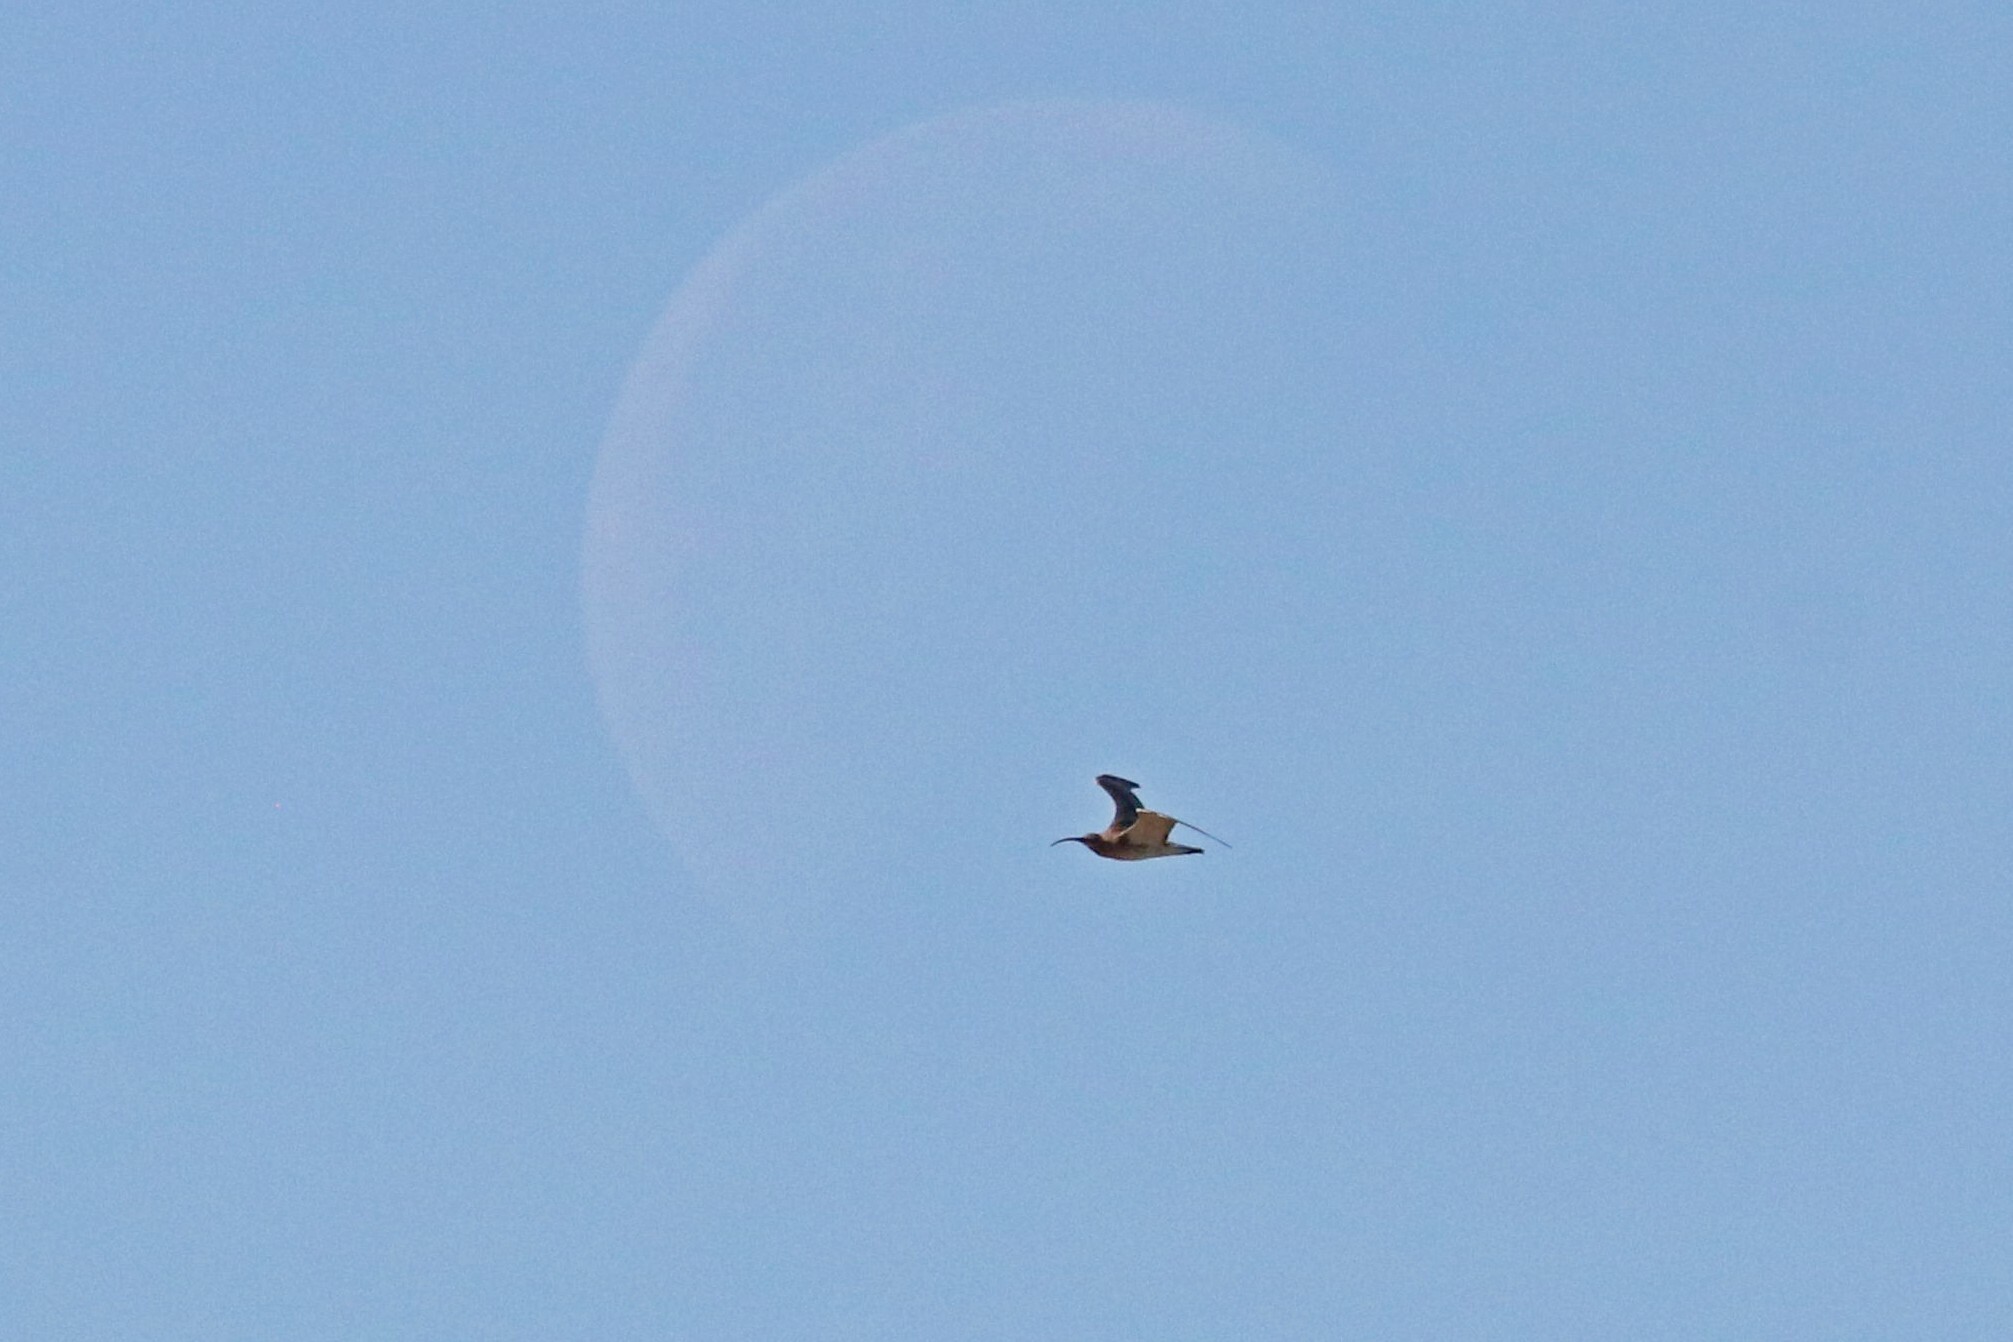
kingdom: Animalia
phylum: Chordata
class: Aves
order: Charadriiformes
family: Scolopacidae
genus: Numenius
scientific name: Numenius arquata
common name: Eurasian curlew
